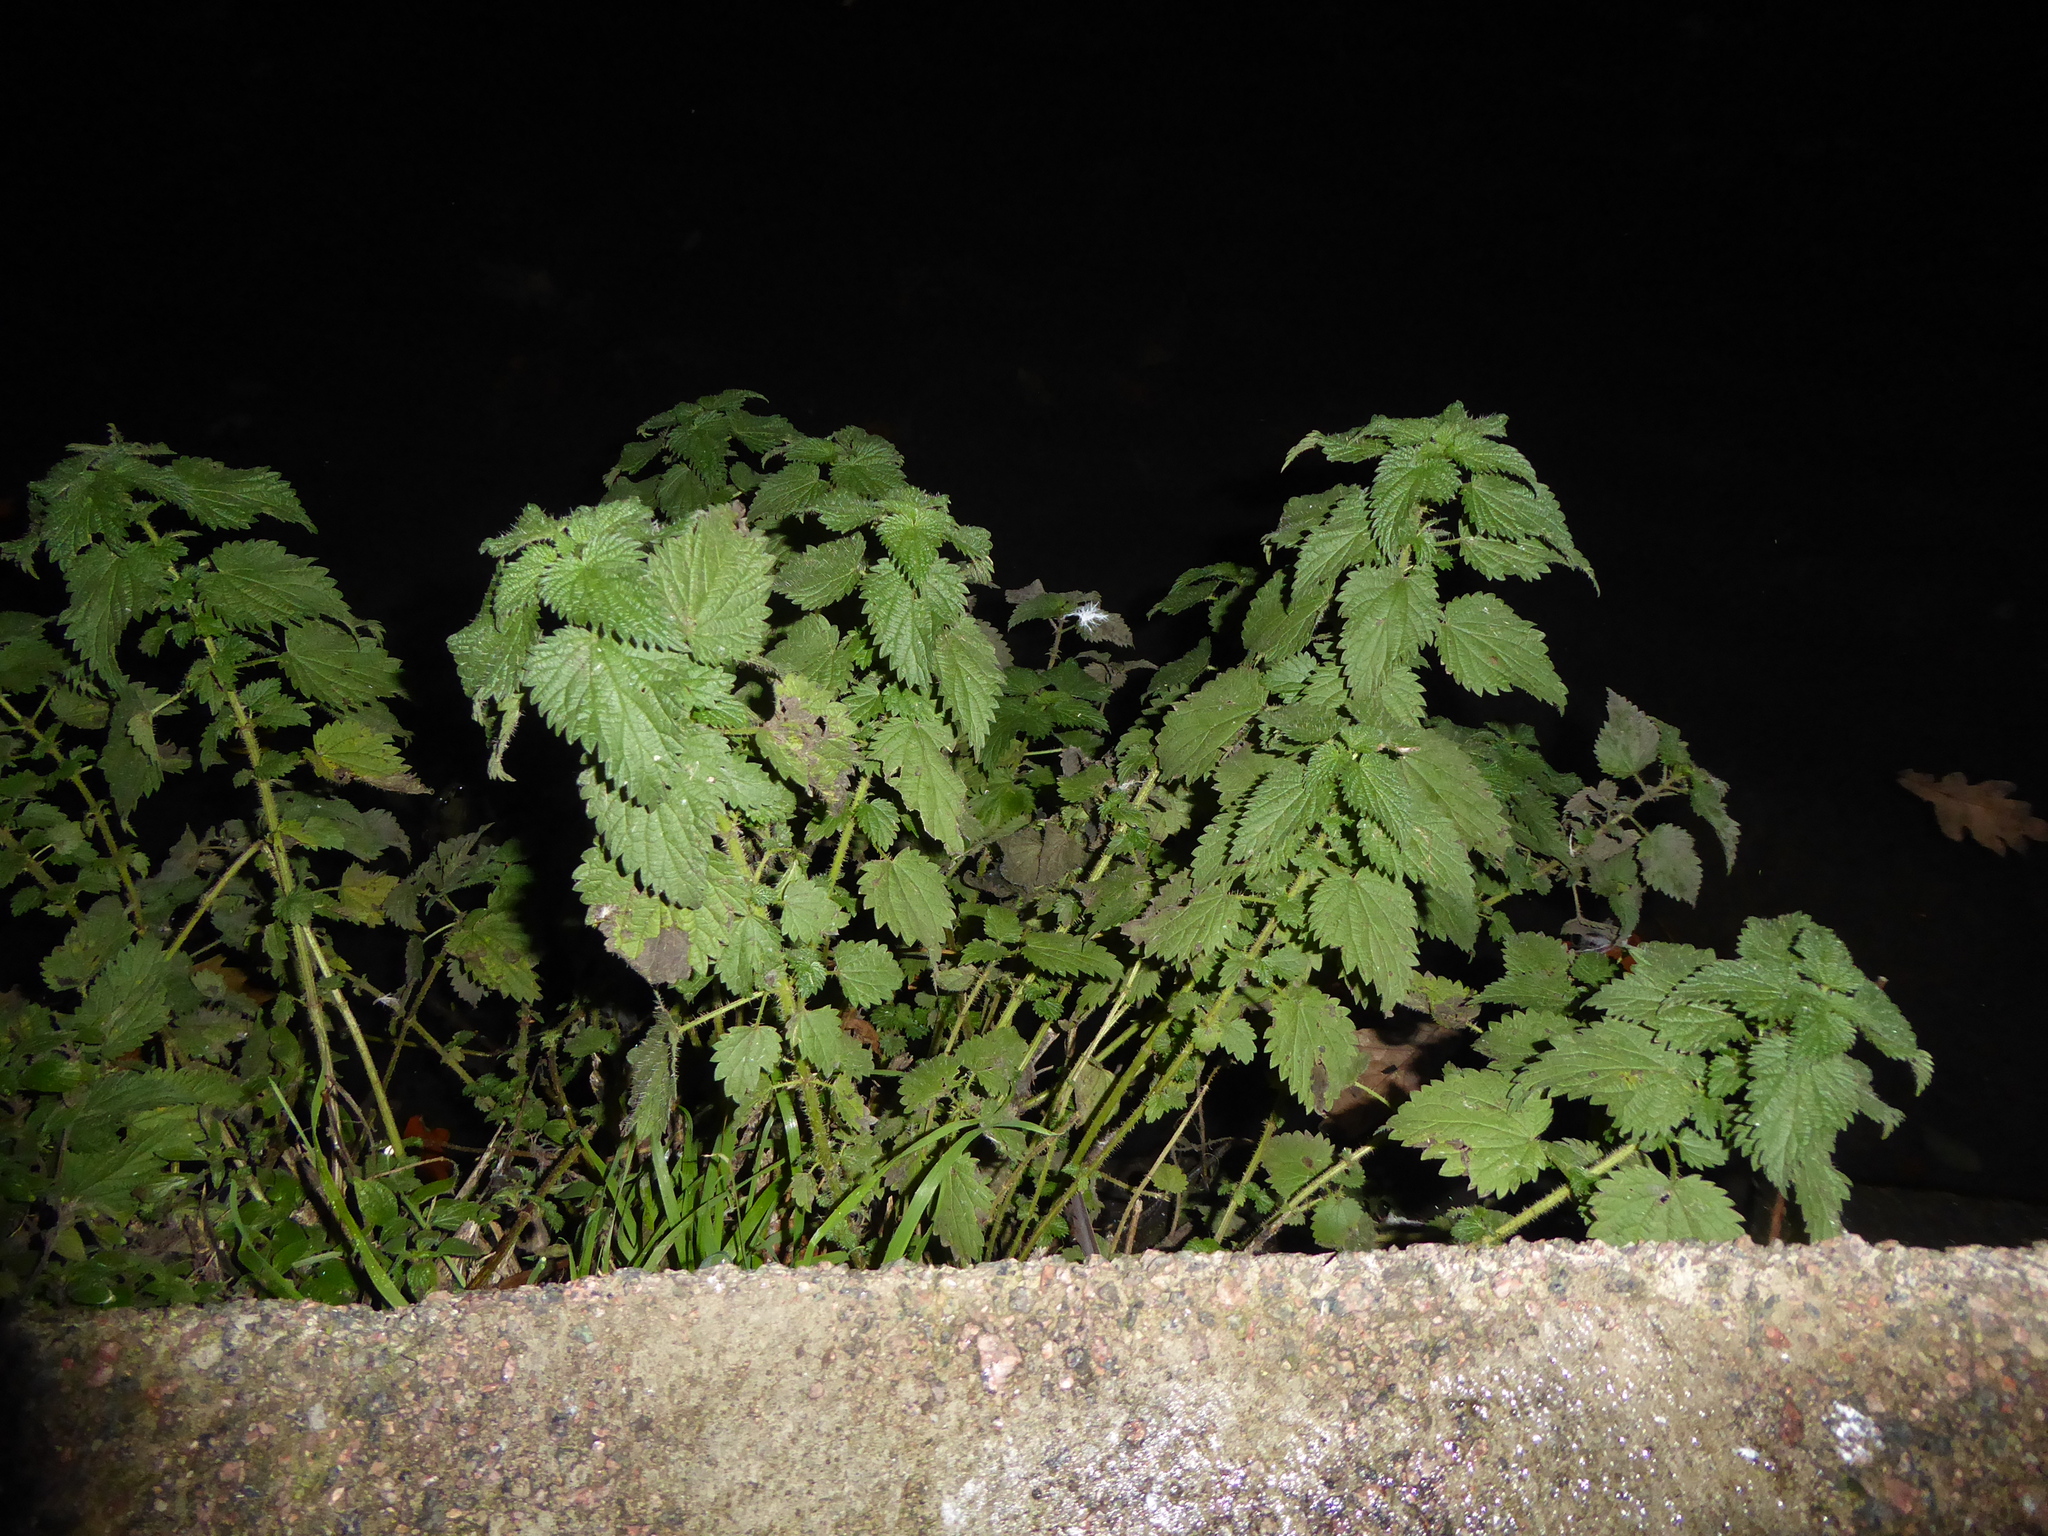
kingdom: Plantae
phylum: Tracheophyta
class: Magnoliopsida
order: Rosales
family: Urticaceae
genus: Urtica
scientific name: Urtica dioica
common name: Common nettle
